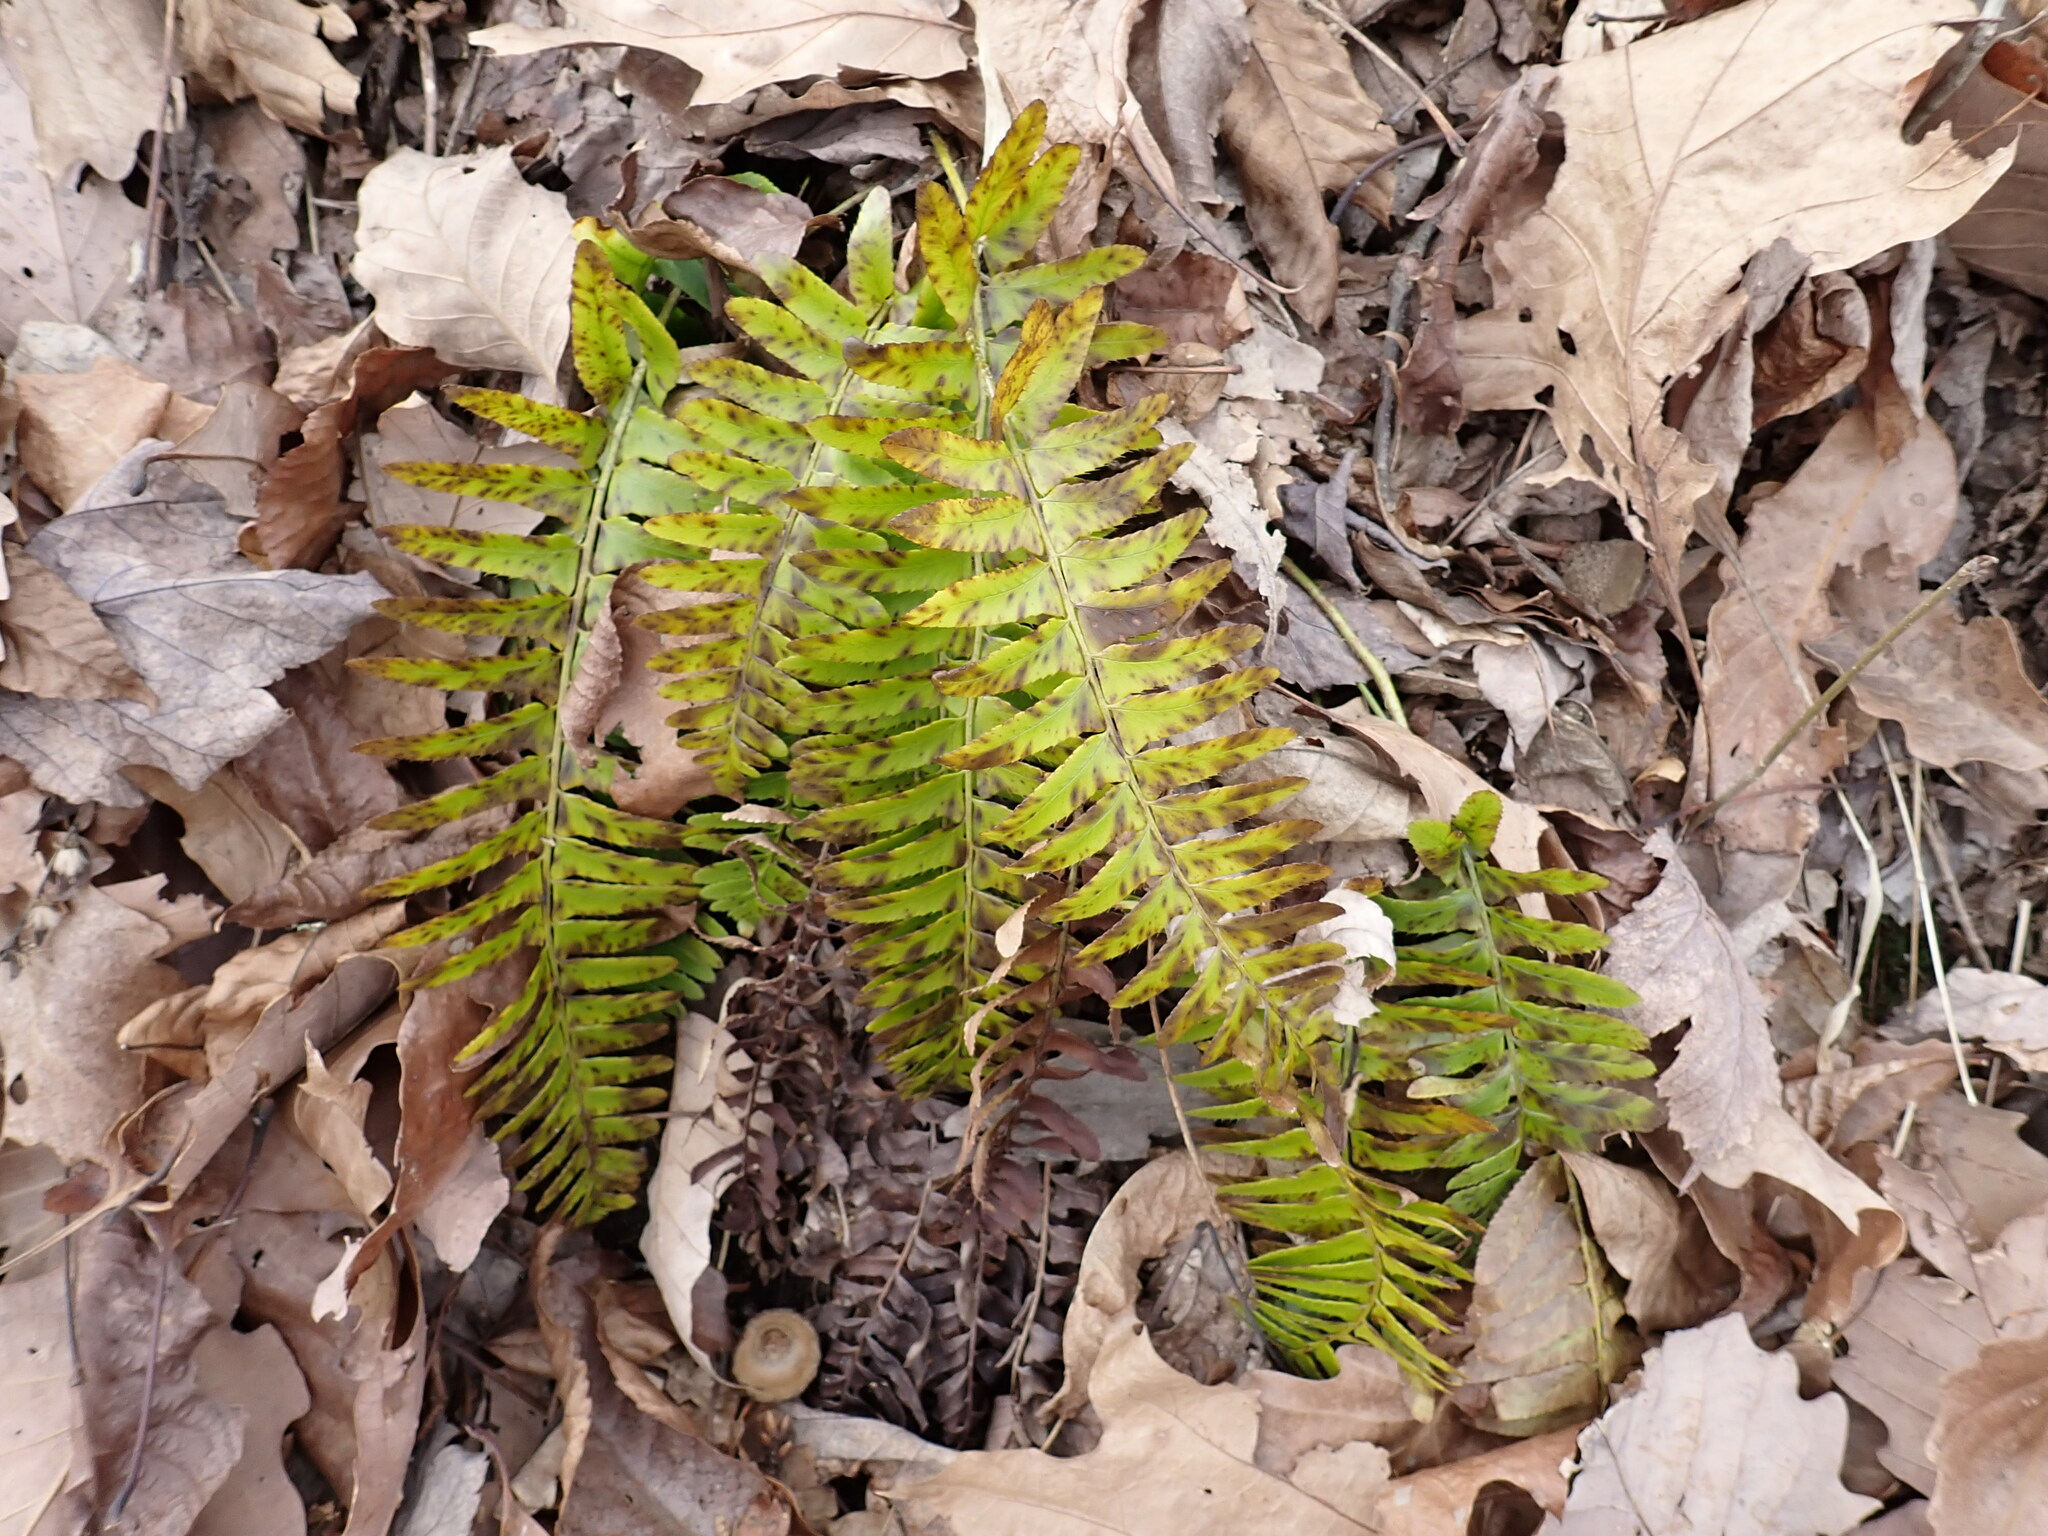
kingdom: Plantae
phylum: Tracheophyta
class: Polypodiopsida
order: Polypodiales
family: Dryopteridaceae
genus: Polystichum
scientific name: Polystichum acrostichoides
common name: Christmas fern
